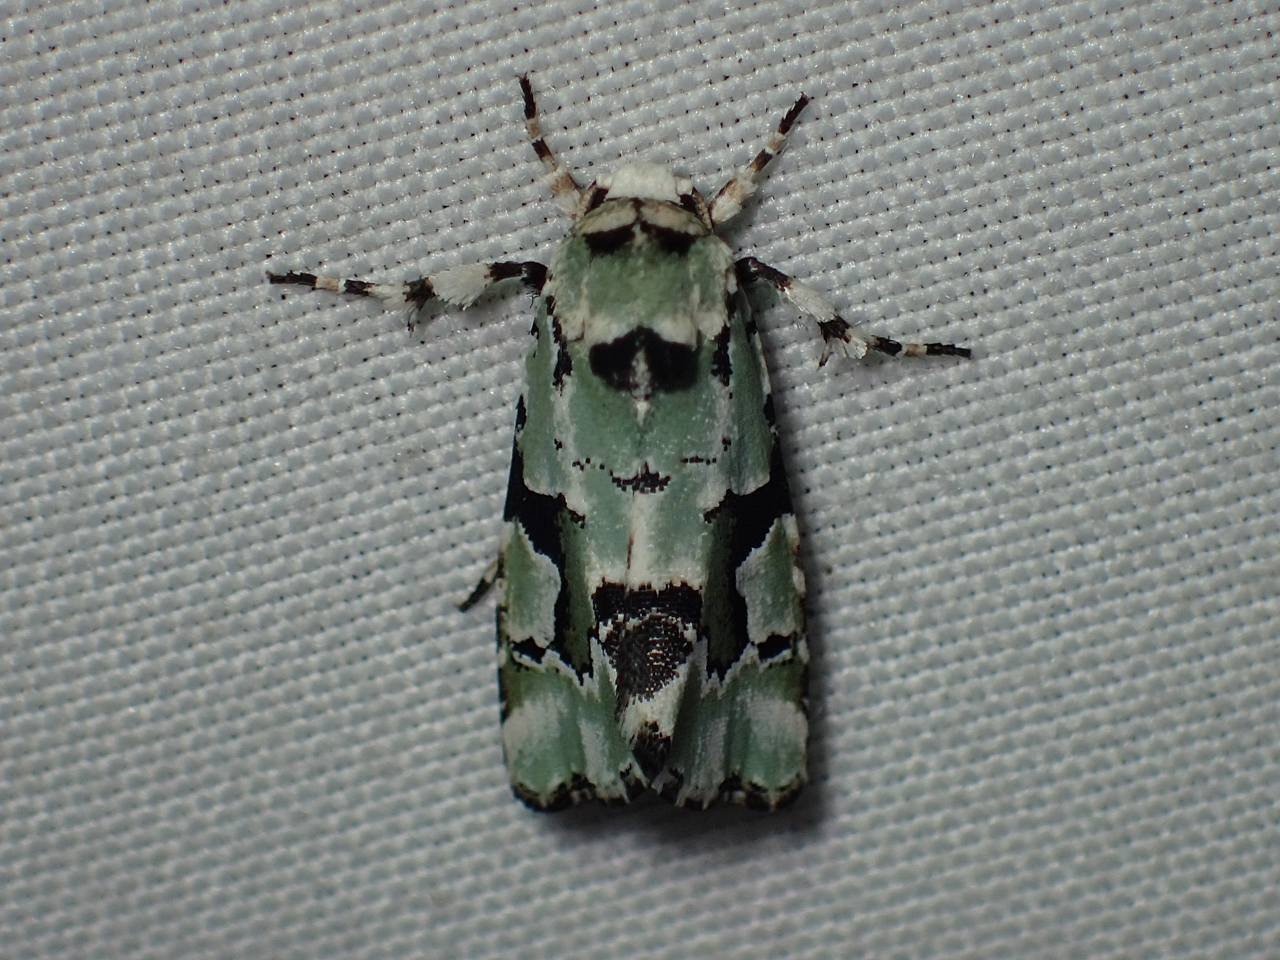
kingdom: Animalia
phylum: Arthropoda
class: Insecta
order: Lepidoptera
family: Noctuidae
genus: Emarginea
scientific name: Emarginea percara
